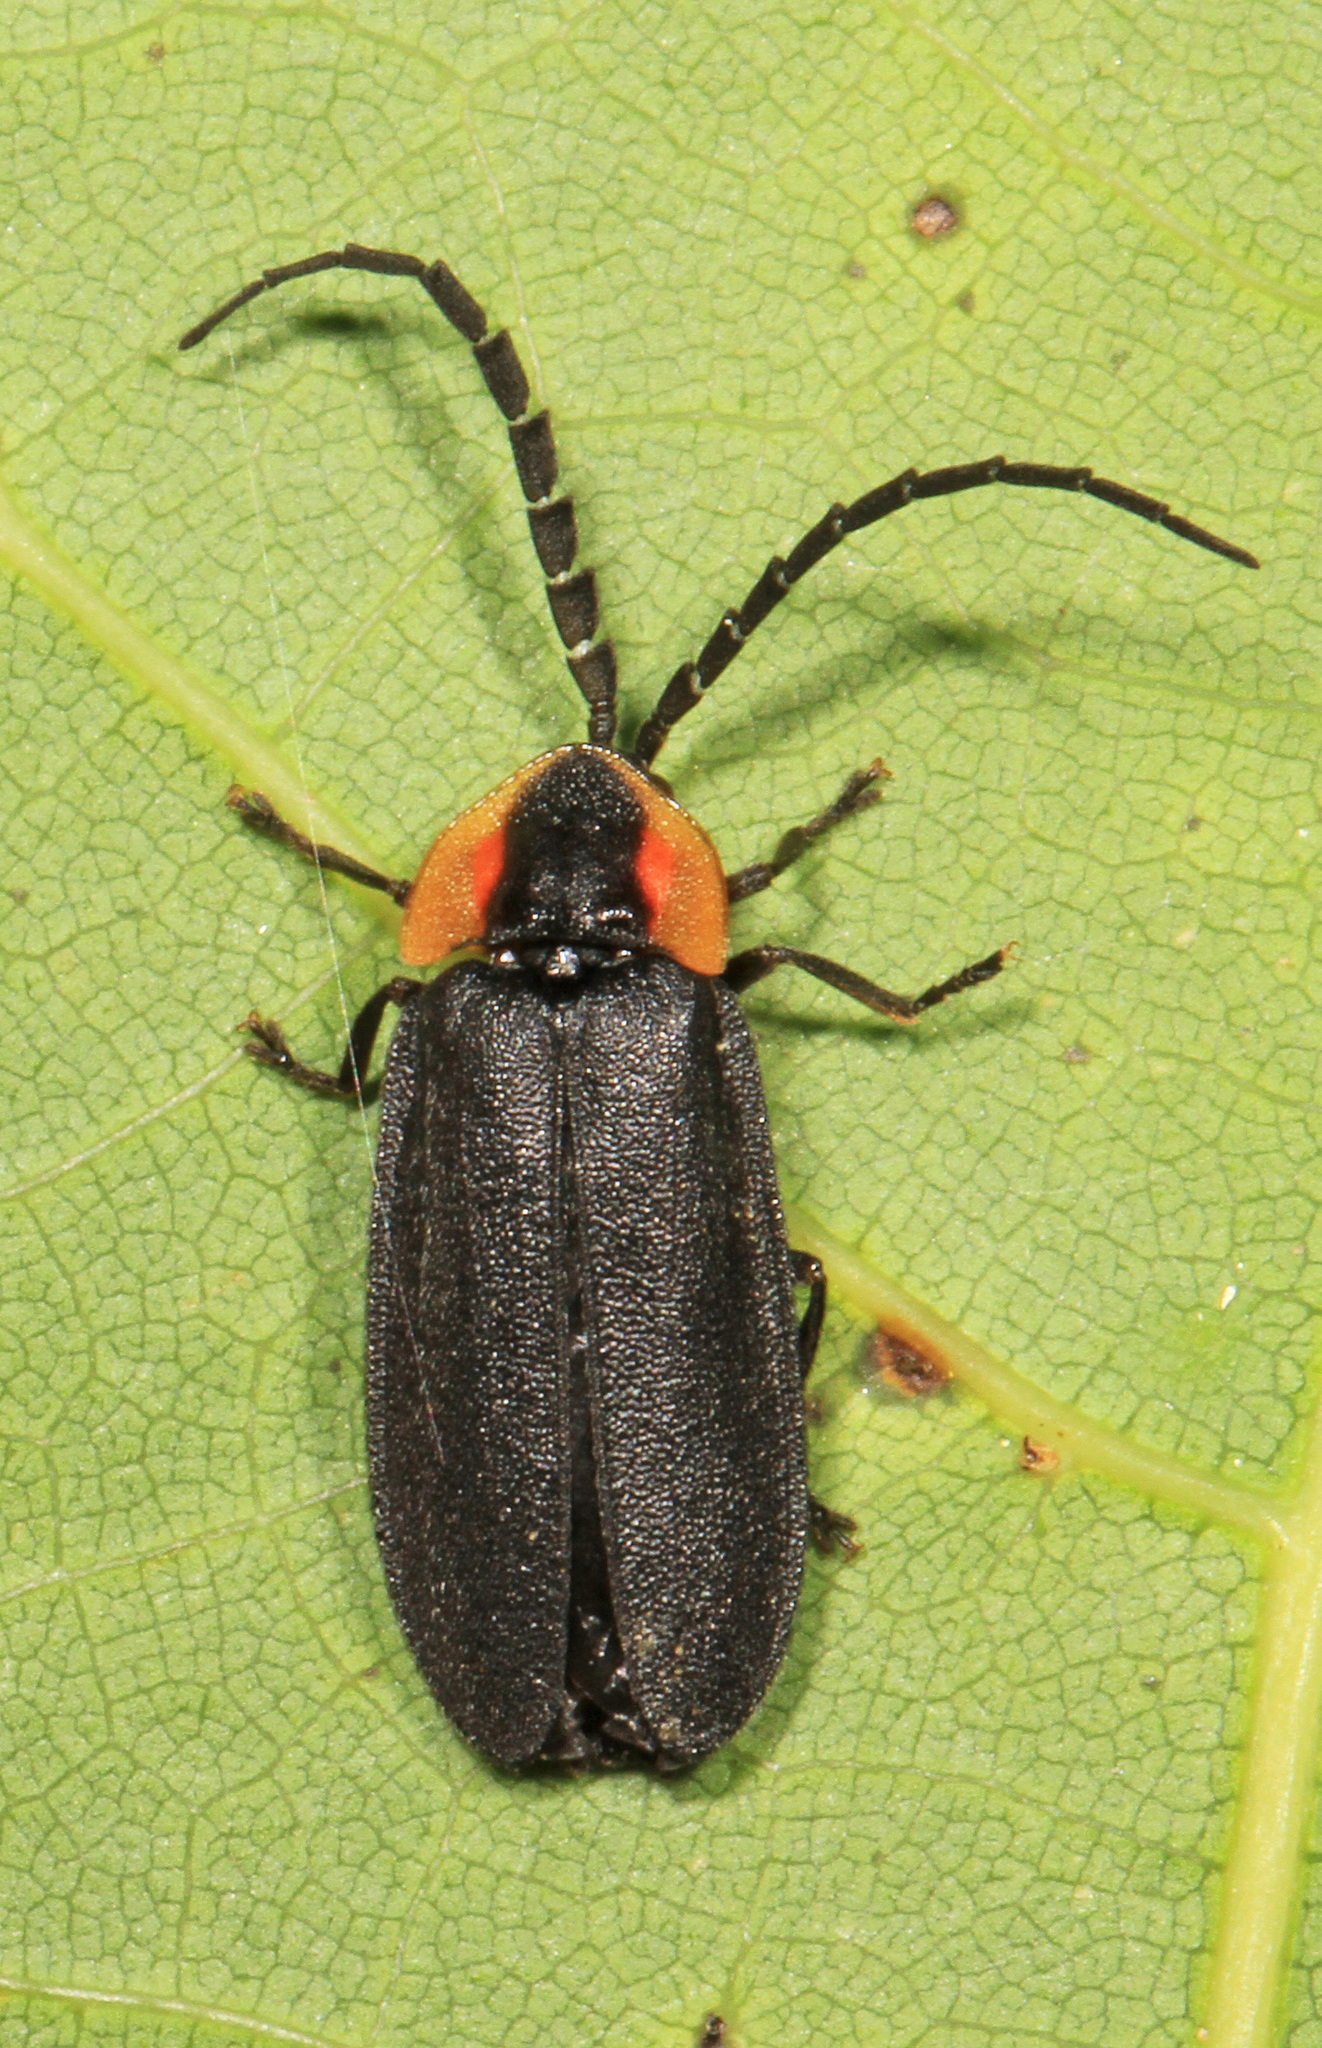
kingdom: Animalia
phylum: Arthropoda
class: Insecta
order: Coleoptera
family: Lampyridae
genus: Lucidota
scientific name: Lucidota atra
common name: Black firefly
